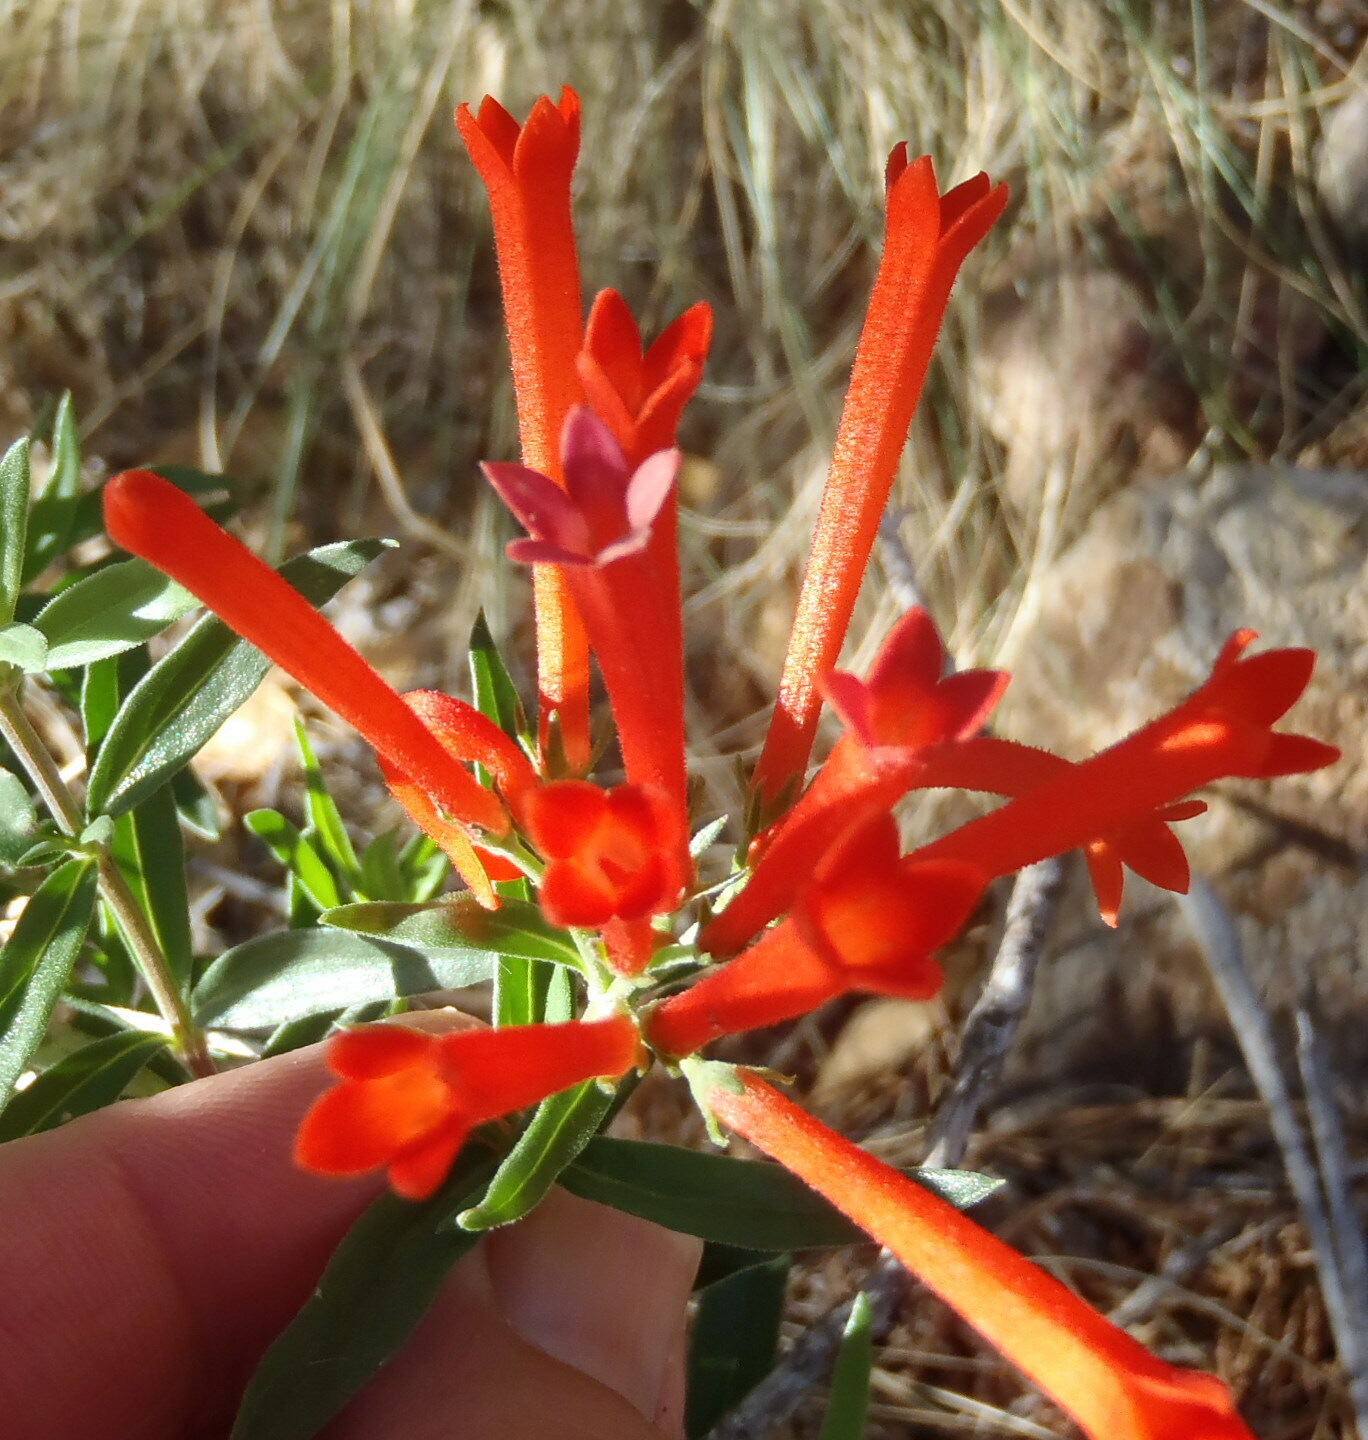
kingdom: Plantae
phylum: Tracheophyta
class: Magnoliopsida
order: Gentianales
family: Rubiaceae
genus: Bouvardia
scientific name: Bouvardia ternifolia
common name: Scarlet bouvardia
